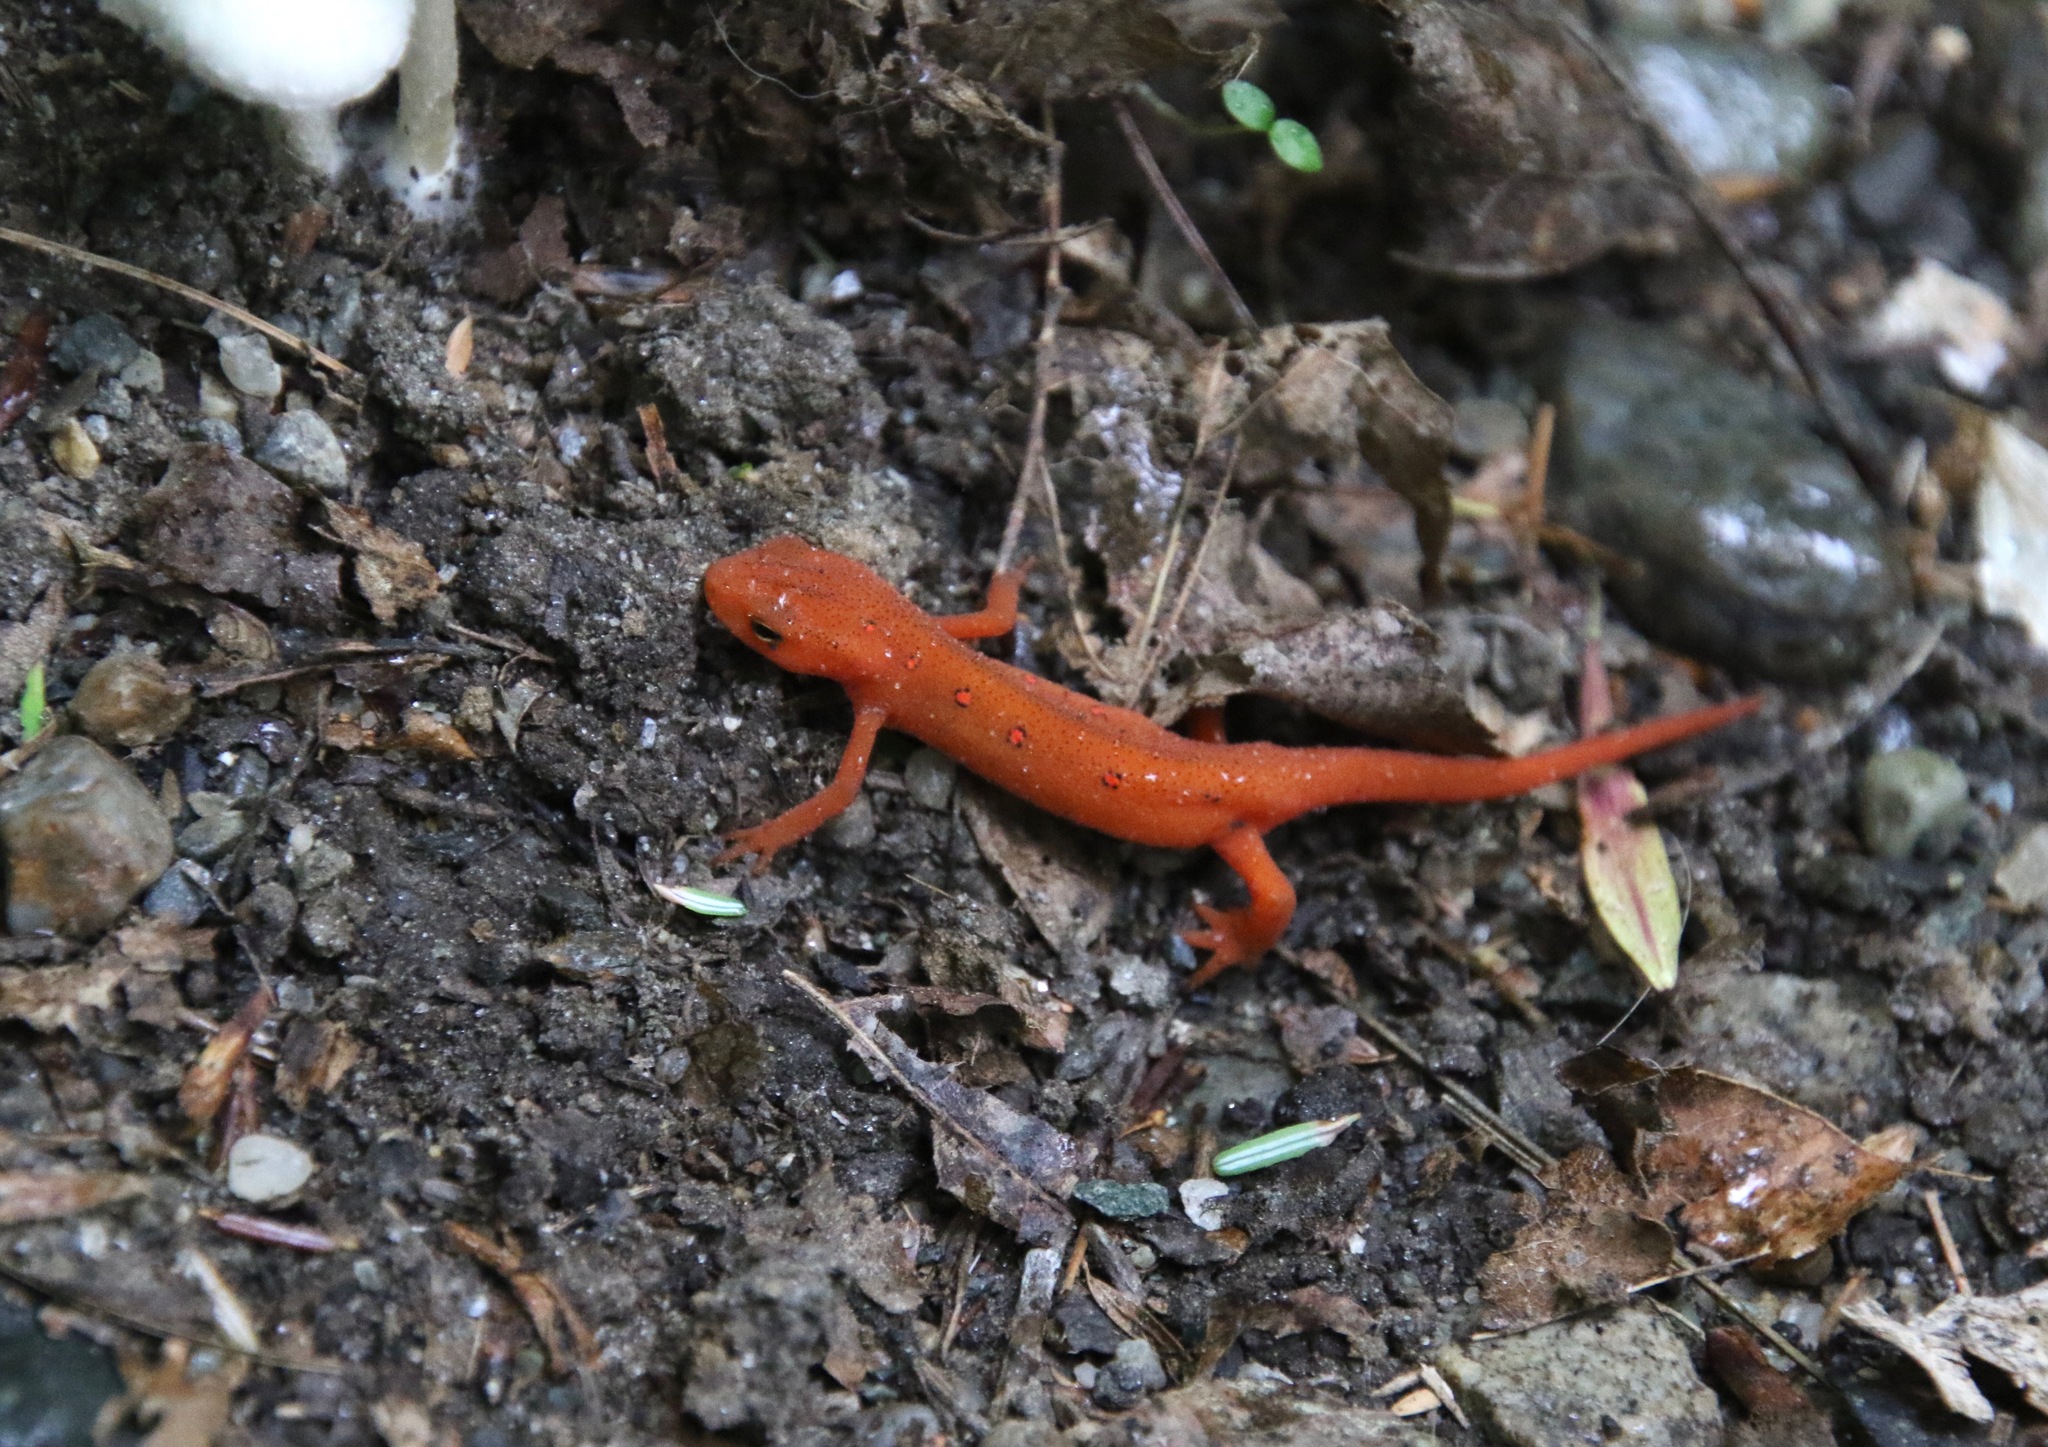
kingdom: Animalia
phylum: Chordata
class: Amphibia
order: Caudata
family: Salamandridae
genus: Notophthalmus
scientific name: Notophthalmus viridescens
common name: Eastern newt
